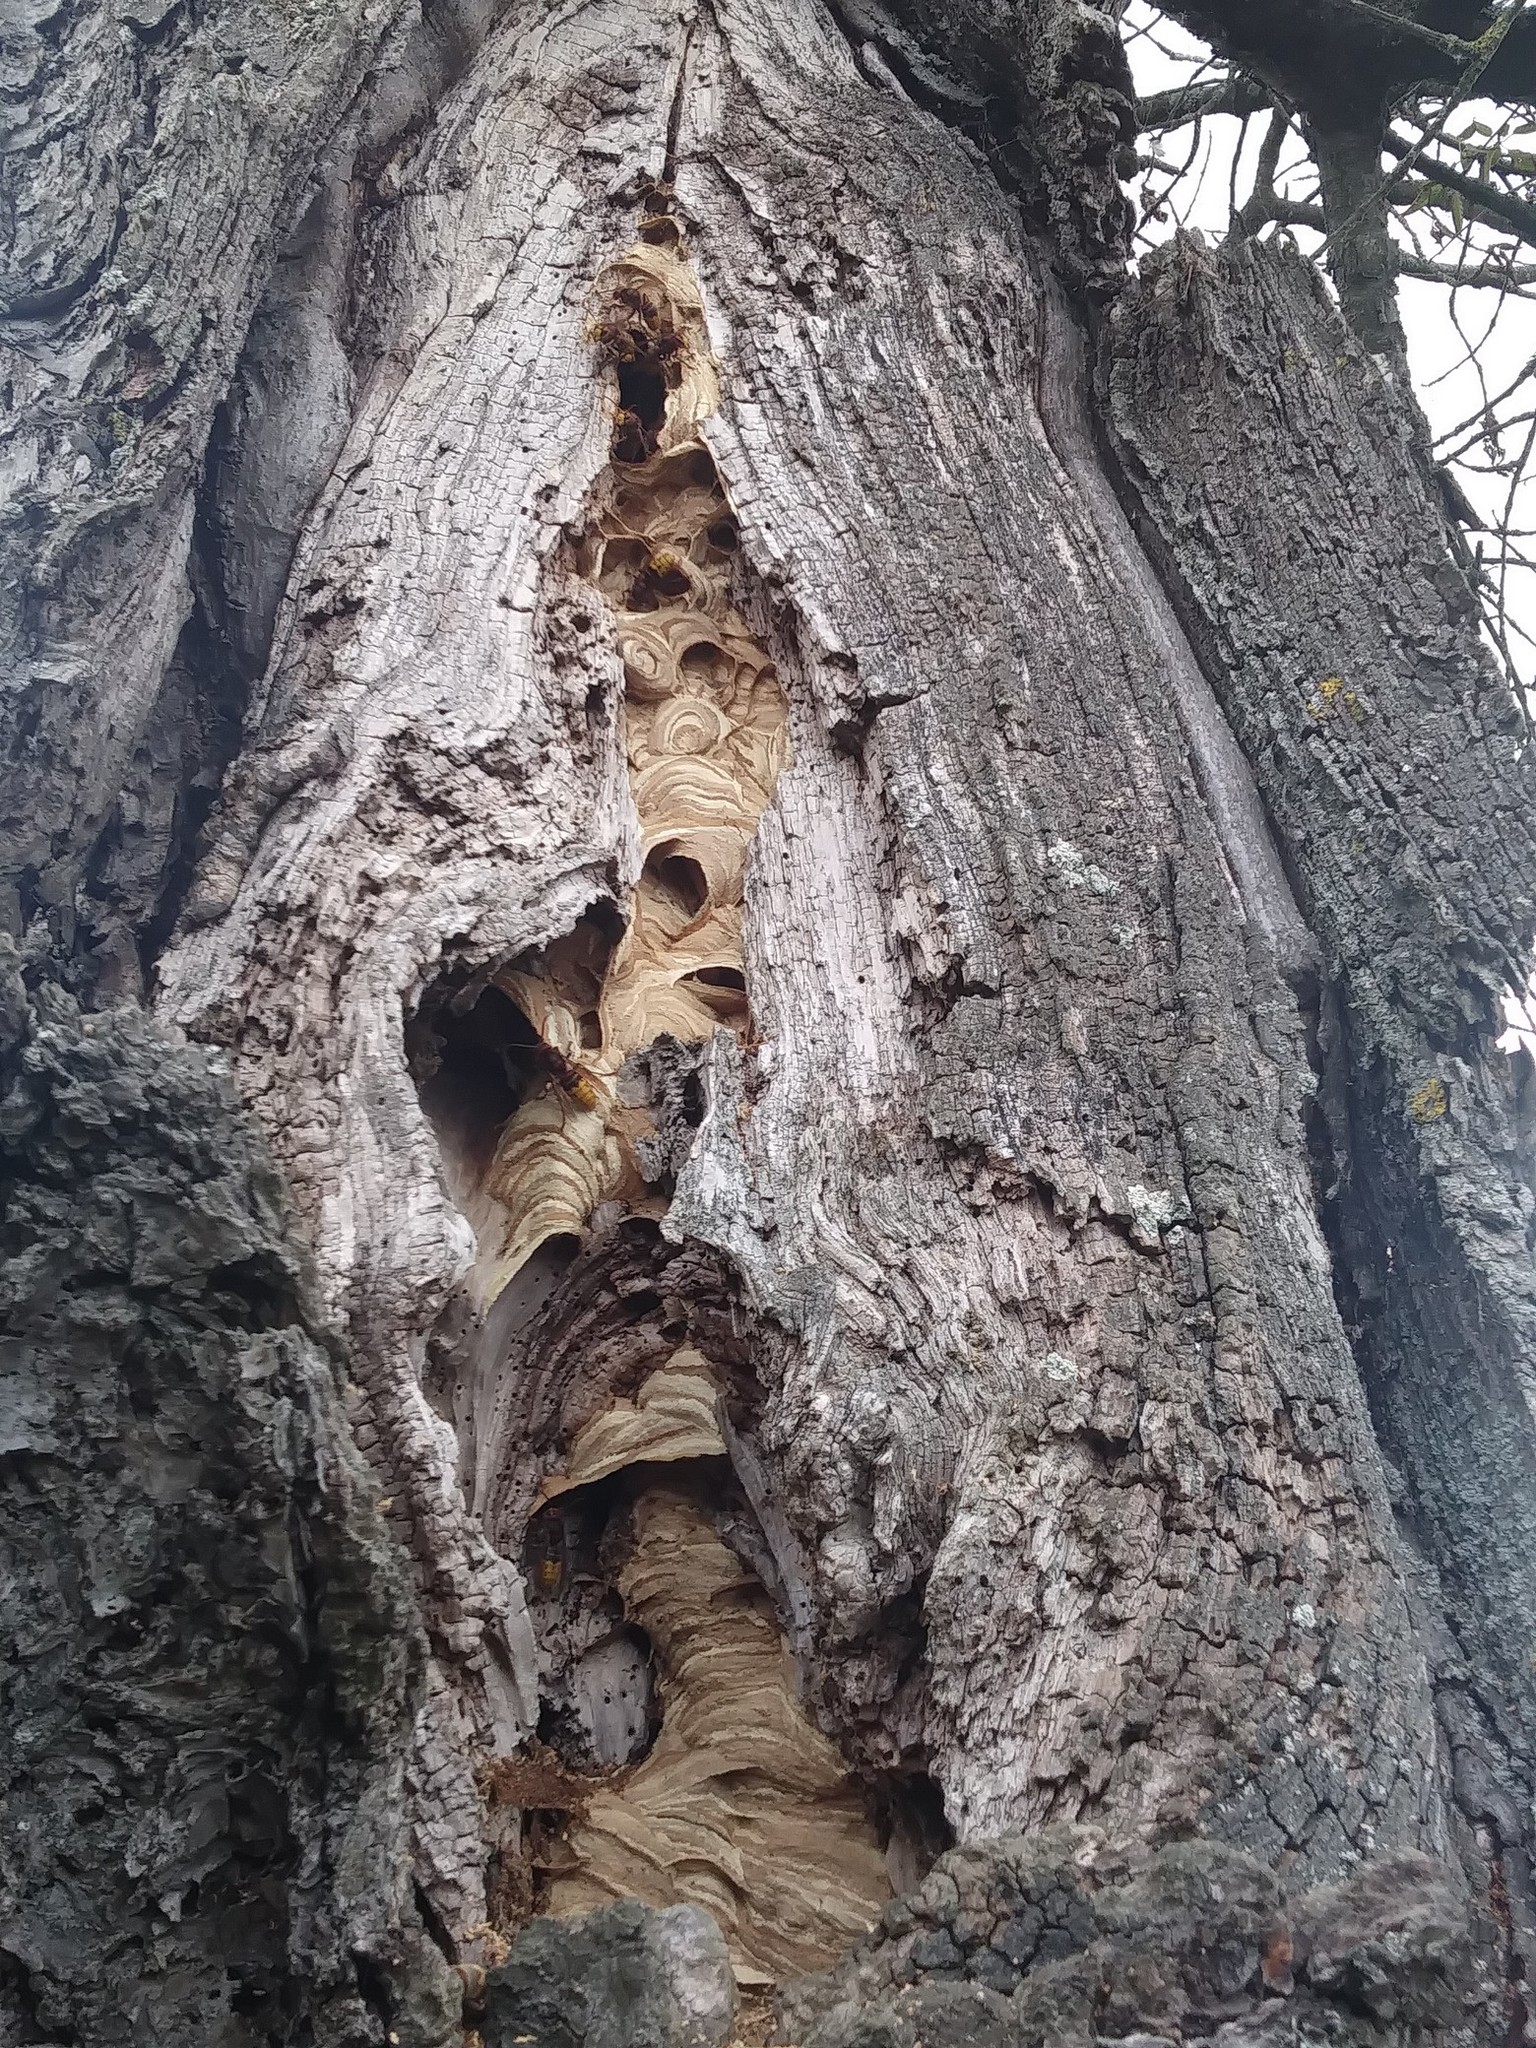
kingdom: Animalia
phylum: Arthropoda
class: Insecta
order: Hymenoptera
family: Vespidae
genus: Vespa
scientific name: Vespa crabro
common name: Hornet
